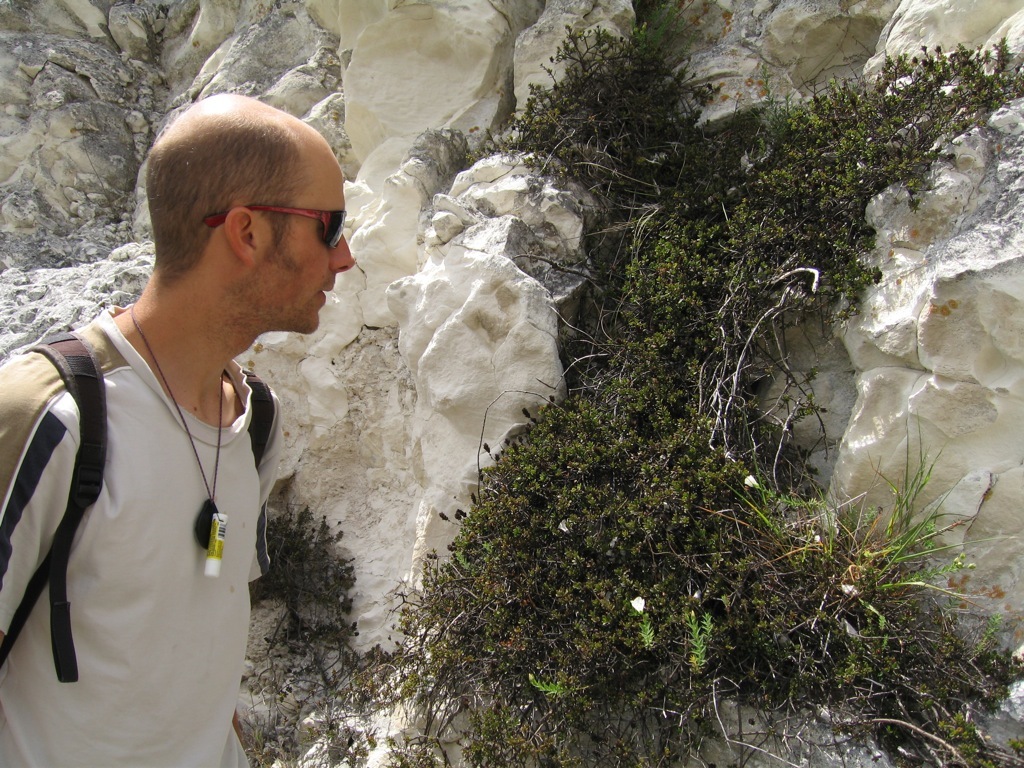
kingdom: Plantae
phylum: Tracheophyta
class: Magnoliopsida
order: Lamiales
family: Plantaginaceae
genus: Veronica
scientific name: Veronica maccaskillii
